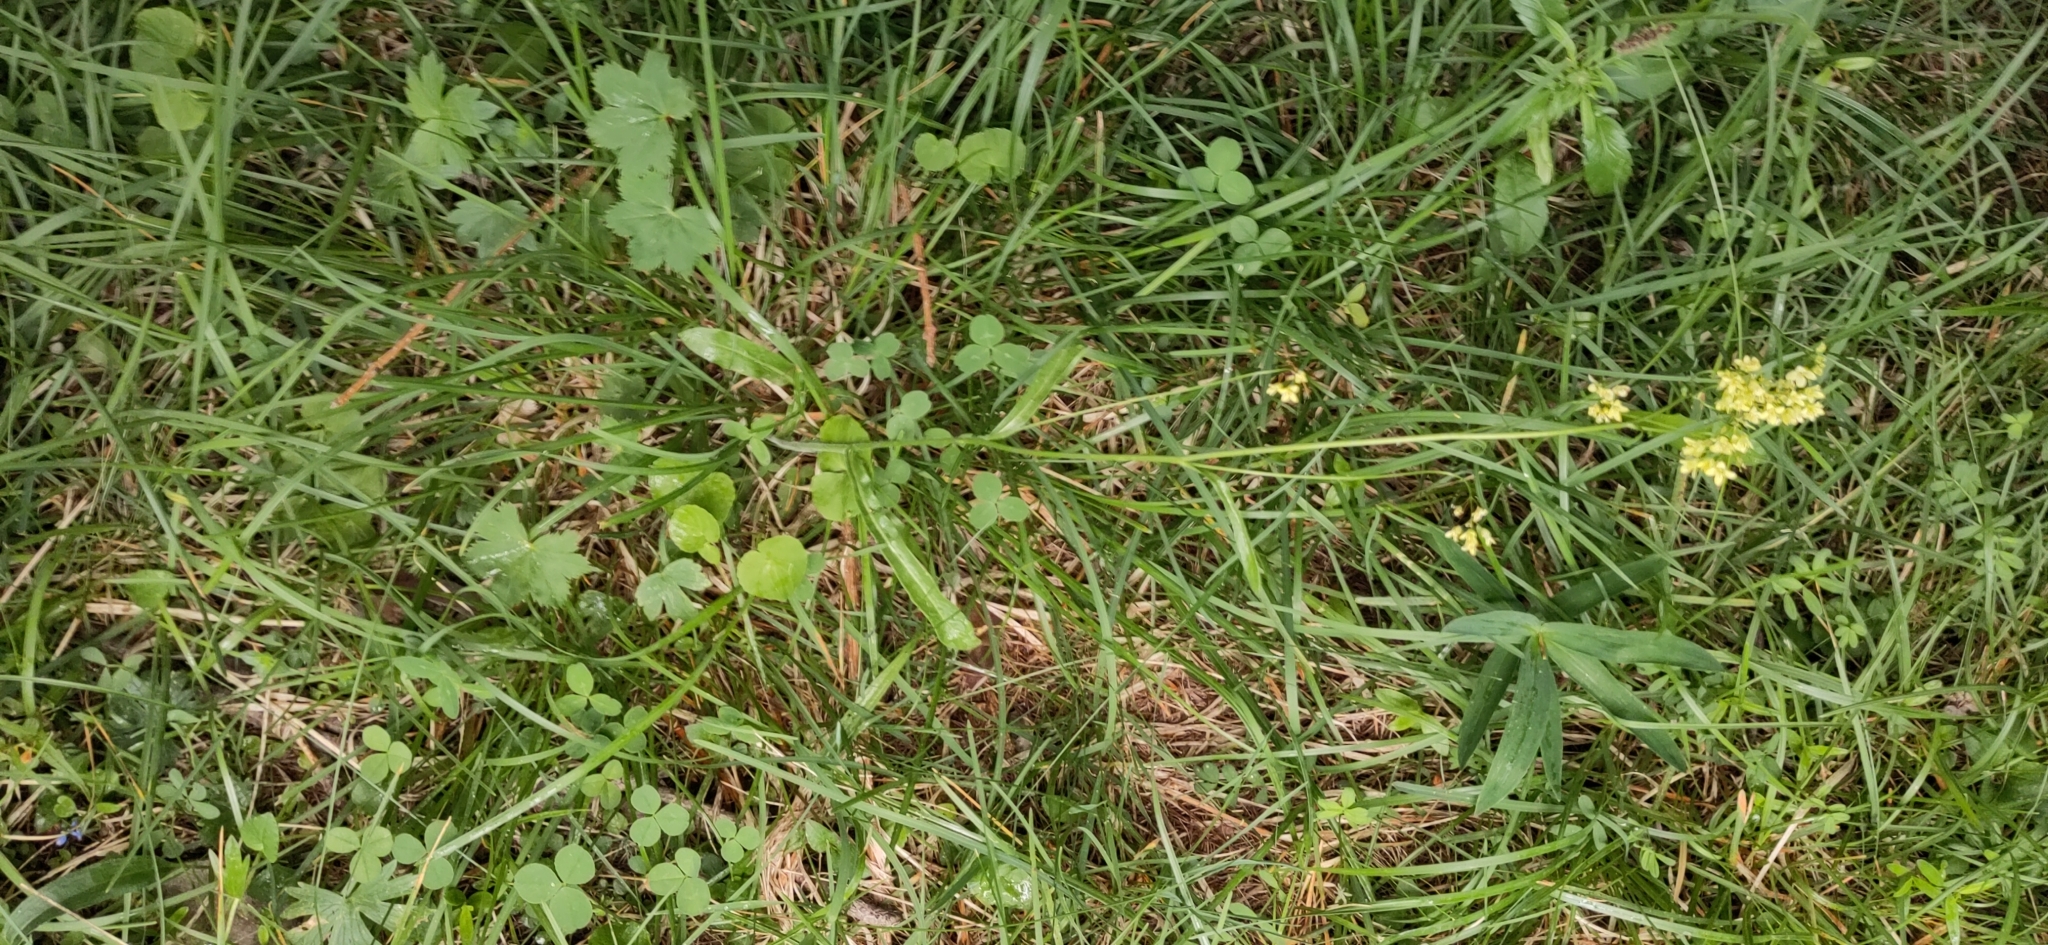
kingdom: Plantae
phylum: Tracheophyta
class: Magnoliopsida
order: Brassicales
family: Brassicaceae
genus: Biscutella
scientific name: Biscutella laevigata
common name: Buckler mustard
